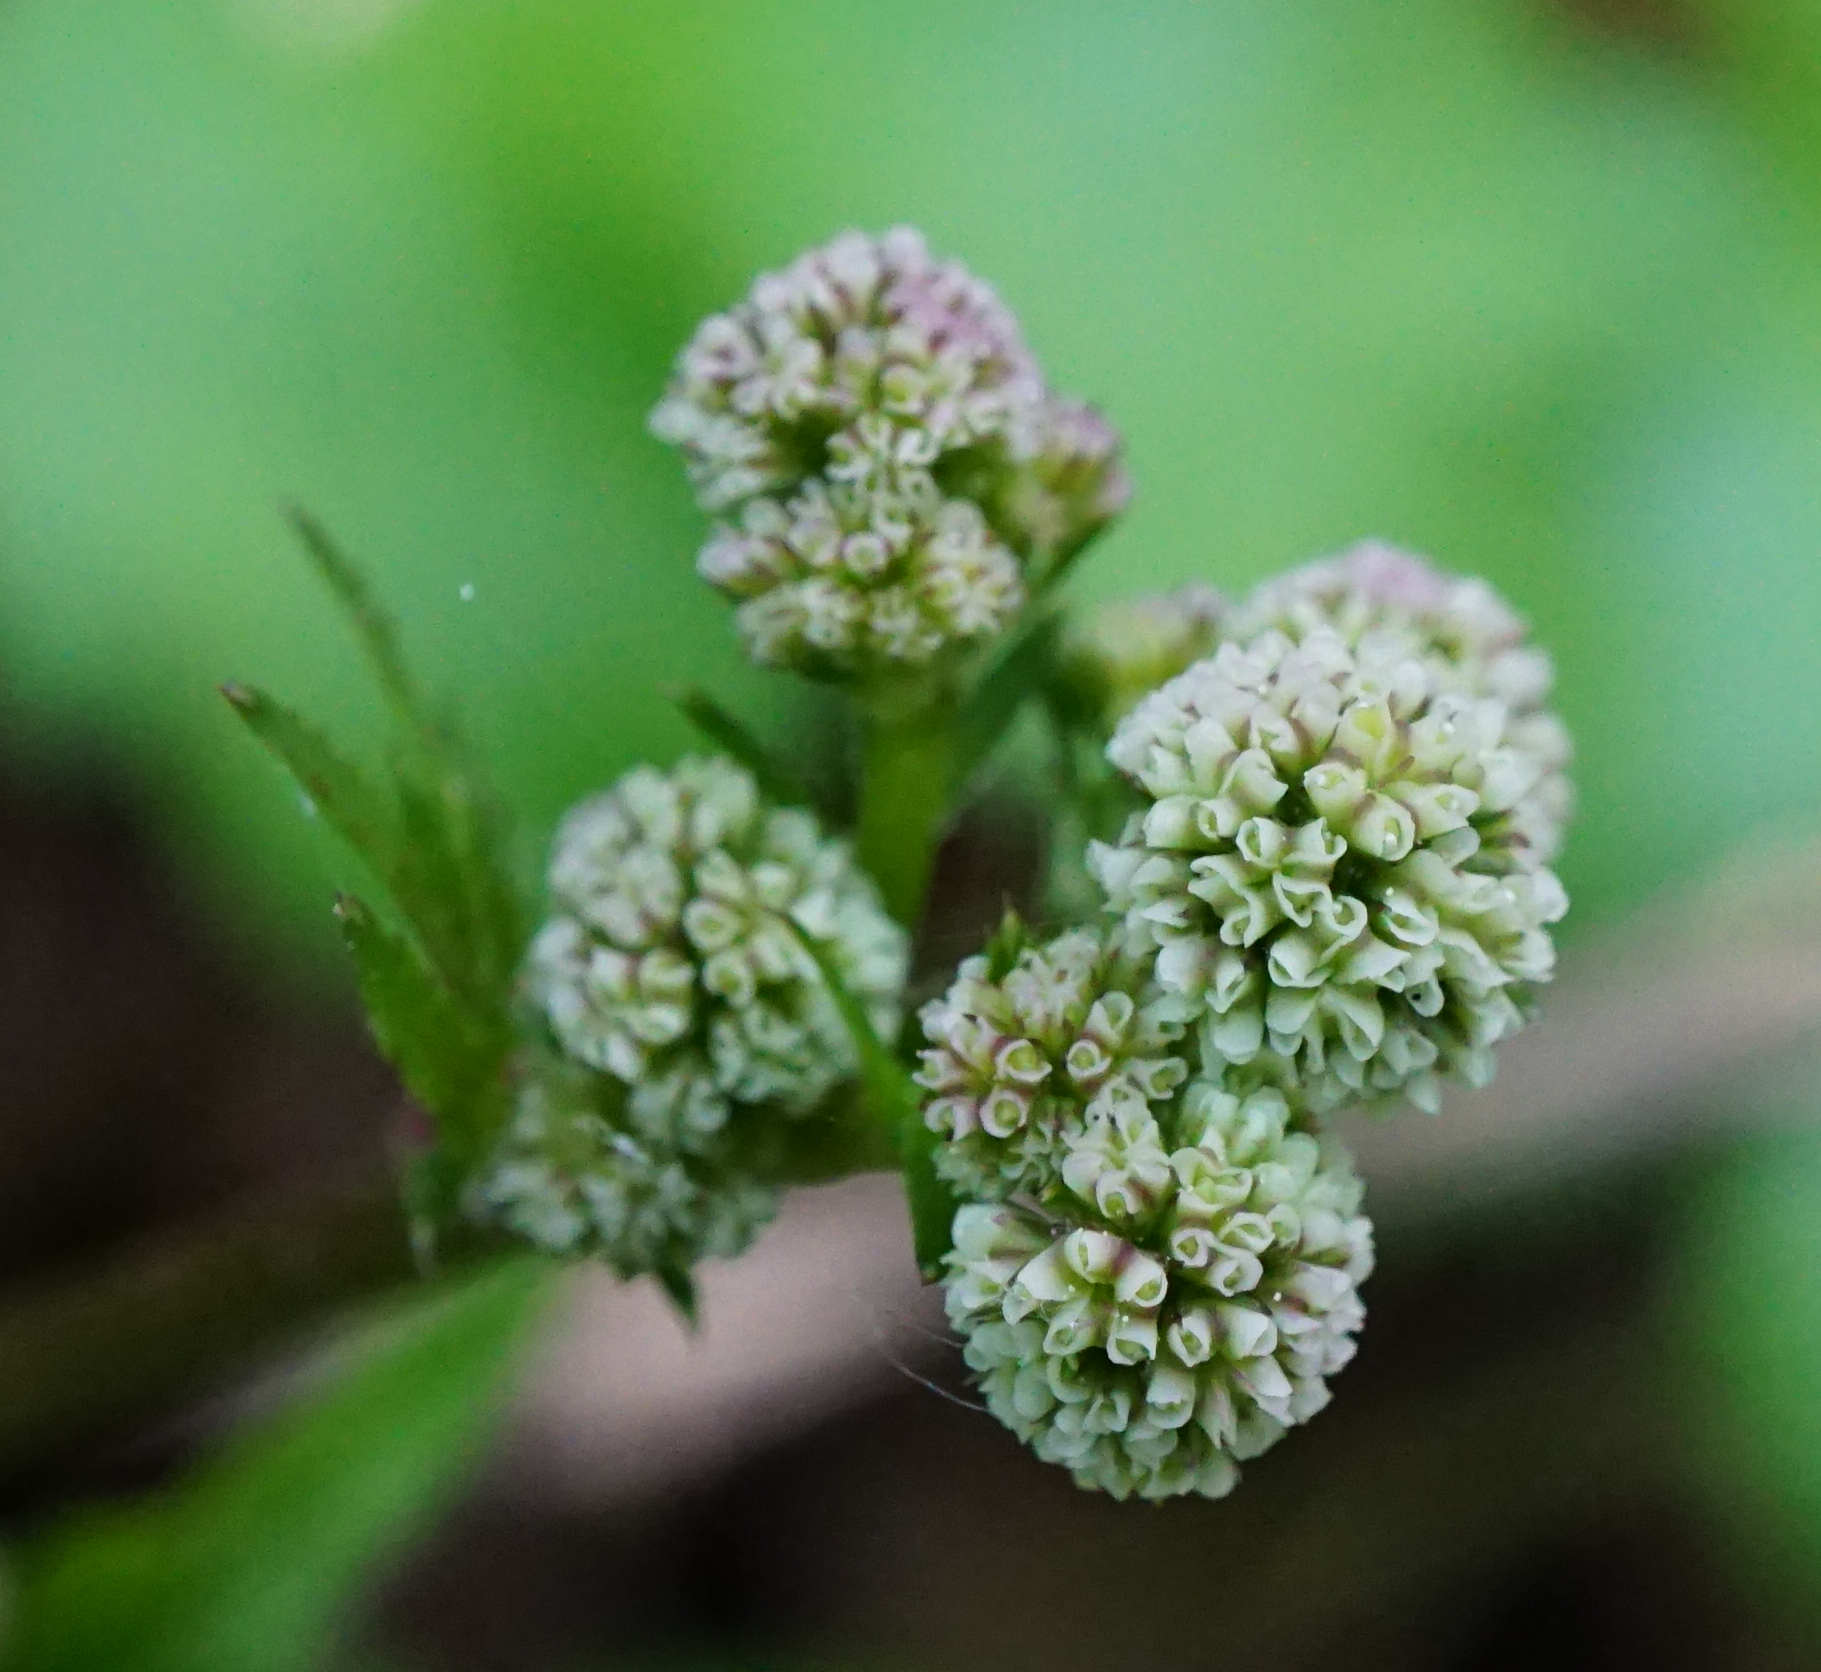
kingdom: Plantae
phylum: Tracheophyta
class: Magnoliopsida
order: Apiales
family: Apiaceae
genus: Sanicula
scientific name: Sanicula europaea
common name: Sanicle
